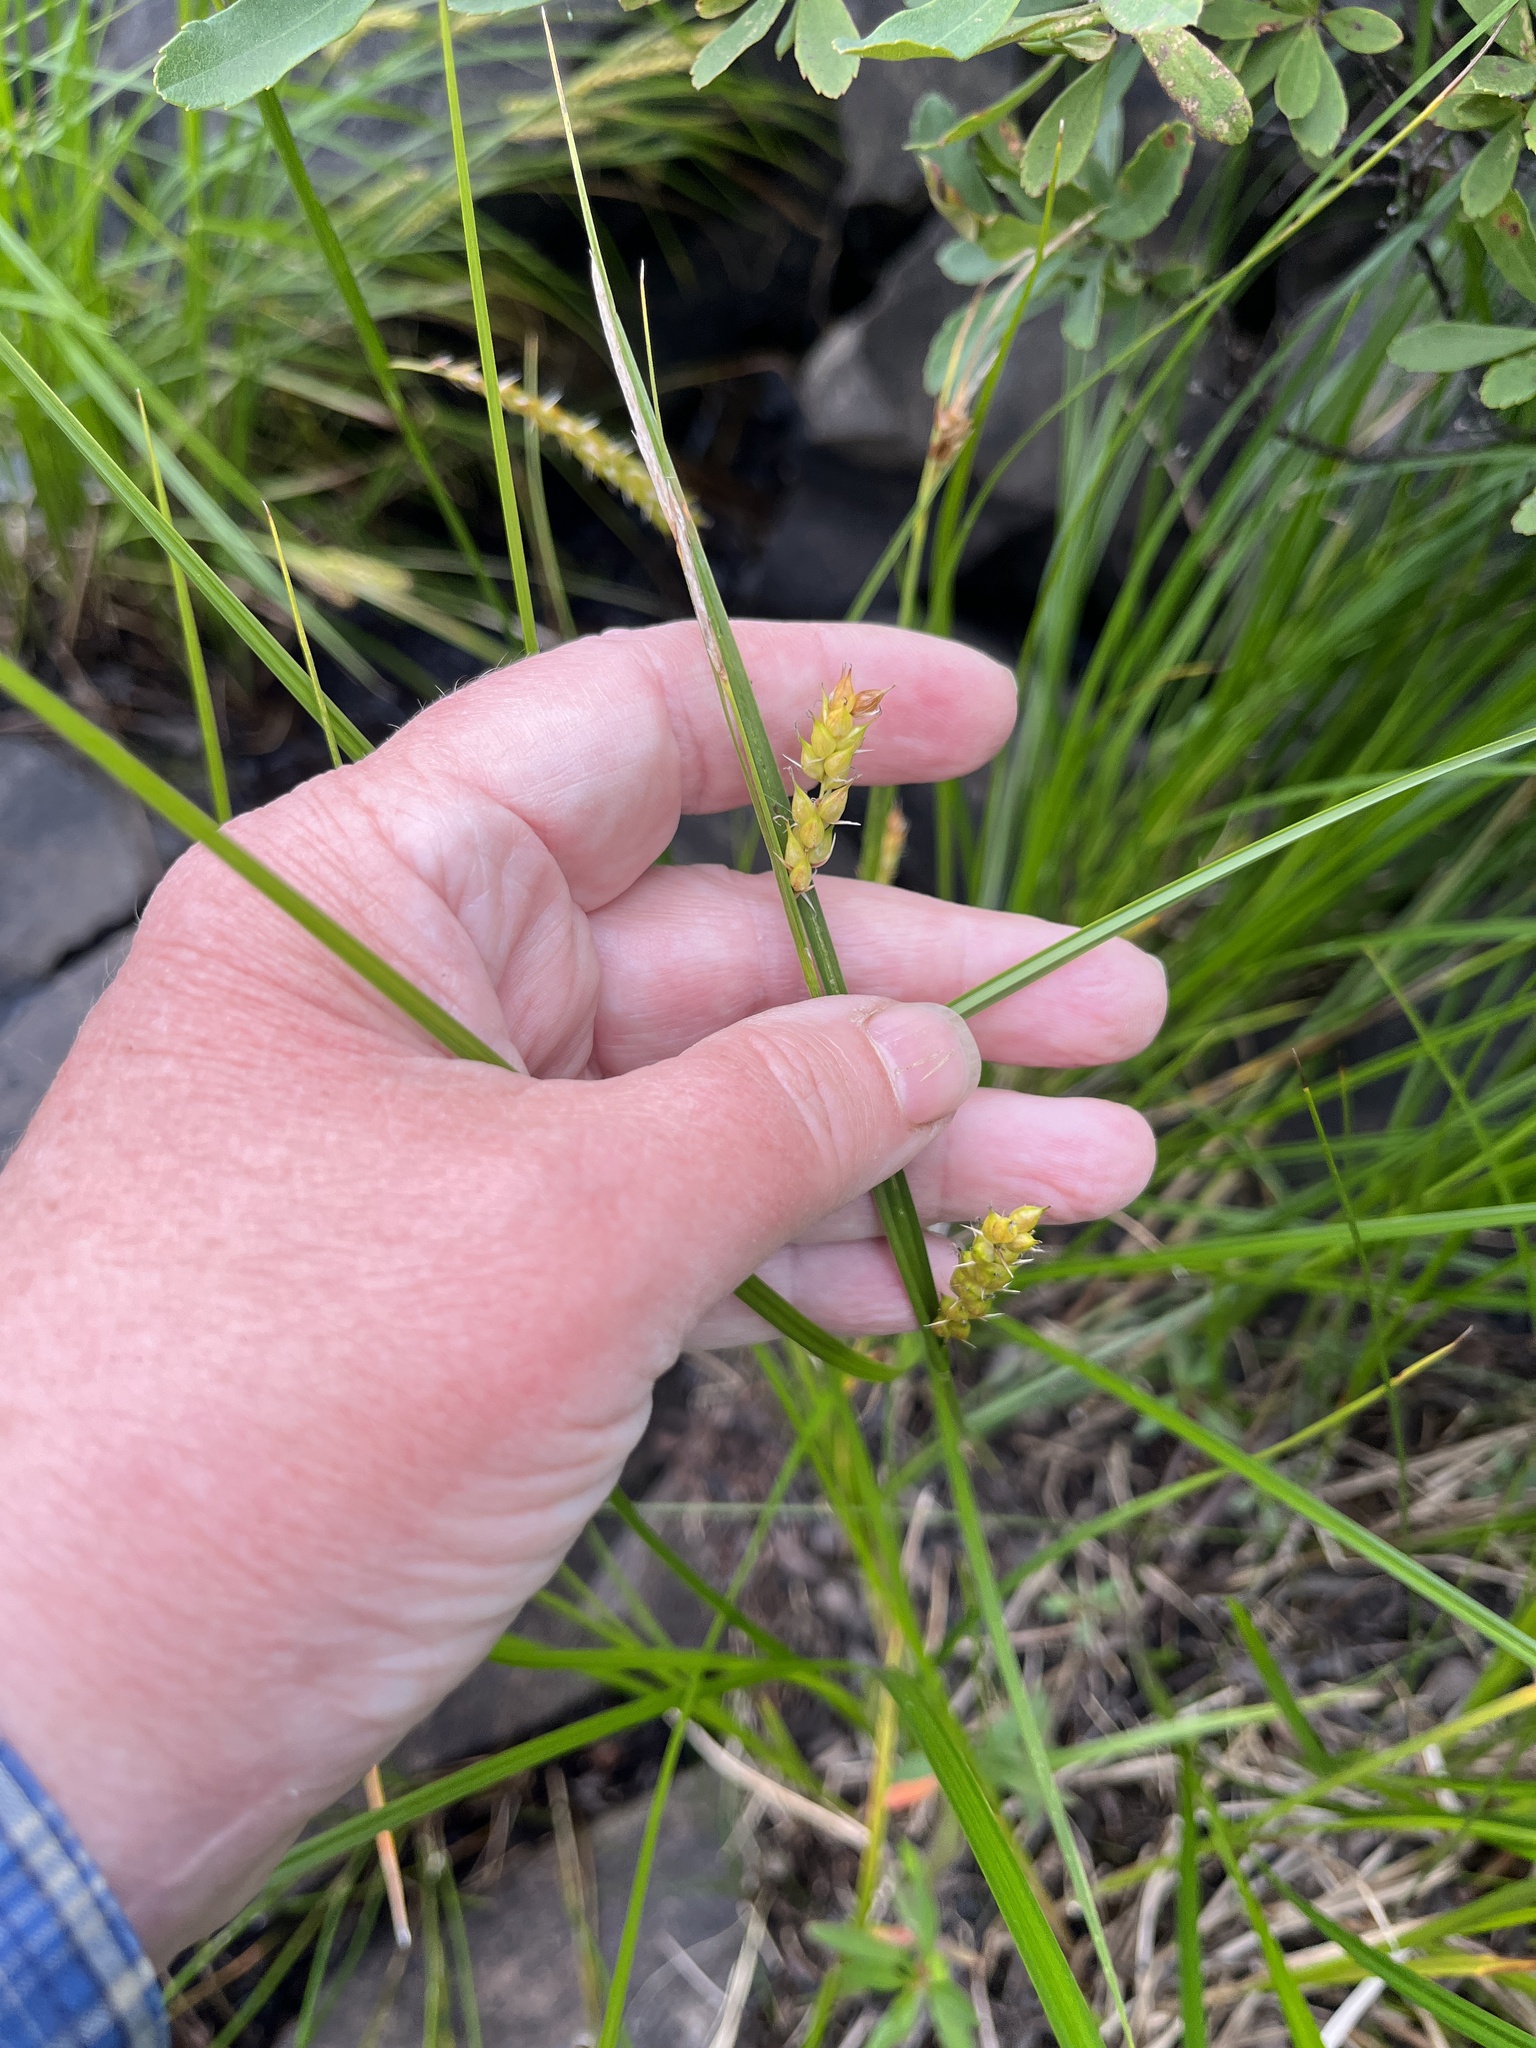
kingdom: Plantae
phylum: Tracheophyta
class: Liliopsida
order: Poales
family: Cyperaceae
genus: Carex
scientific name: Carex vesicaria
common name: Bladder-sedge
